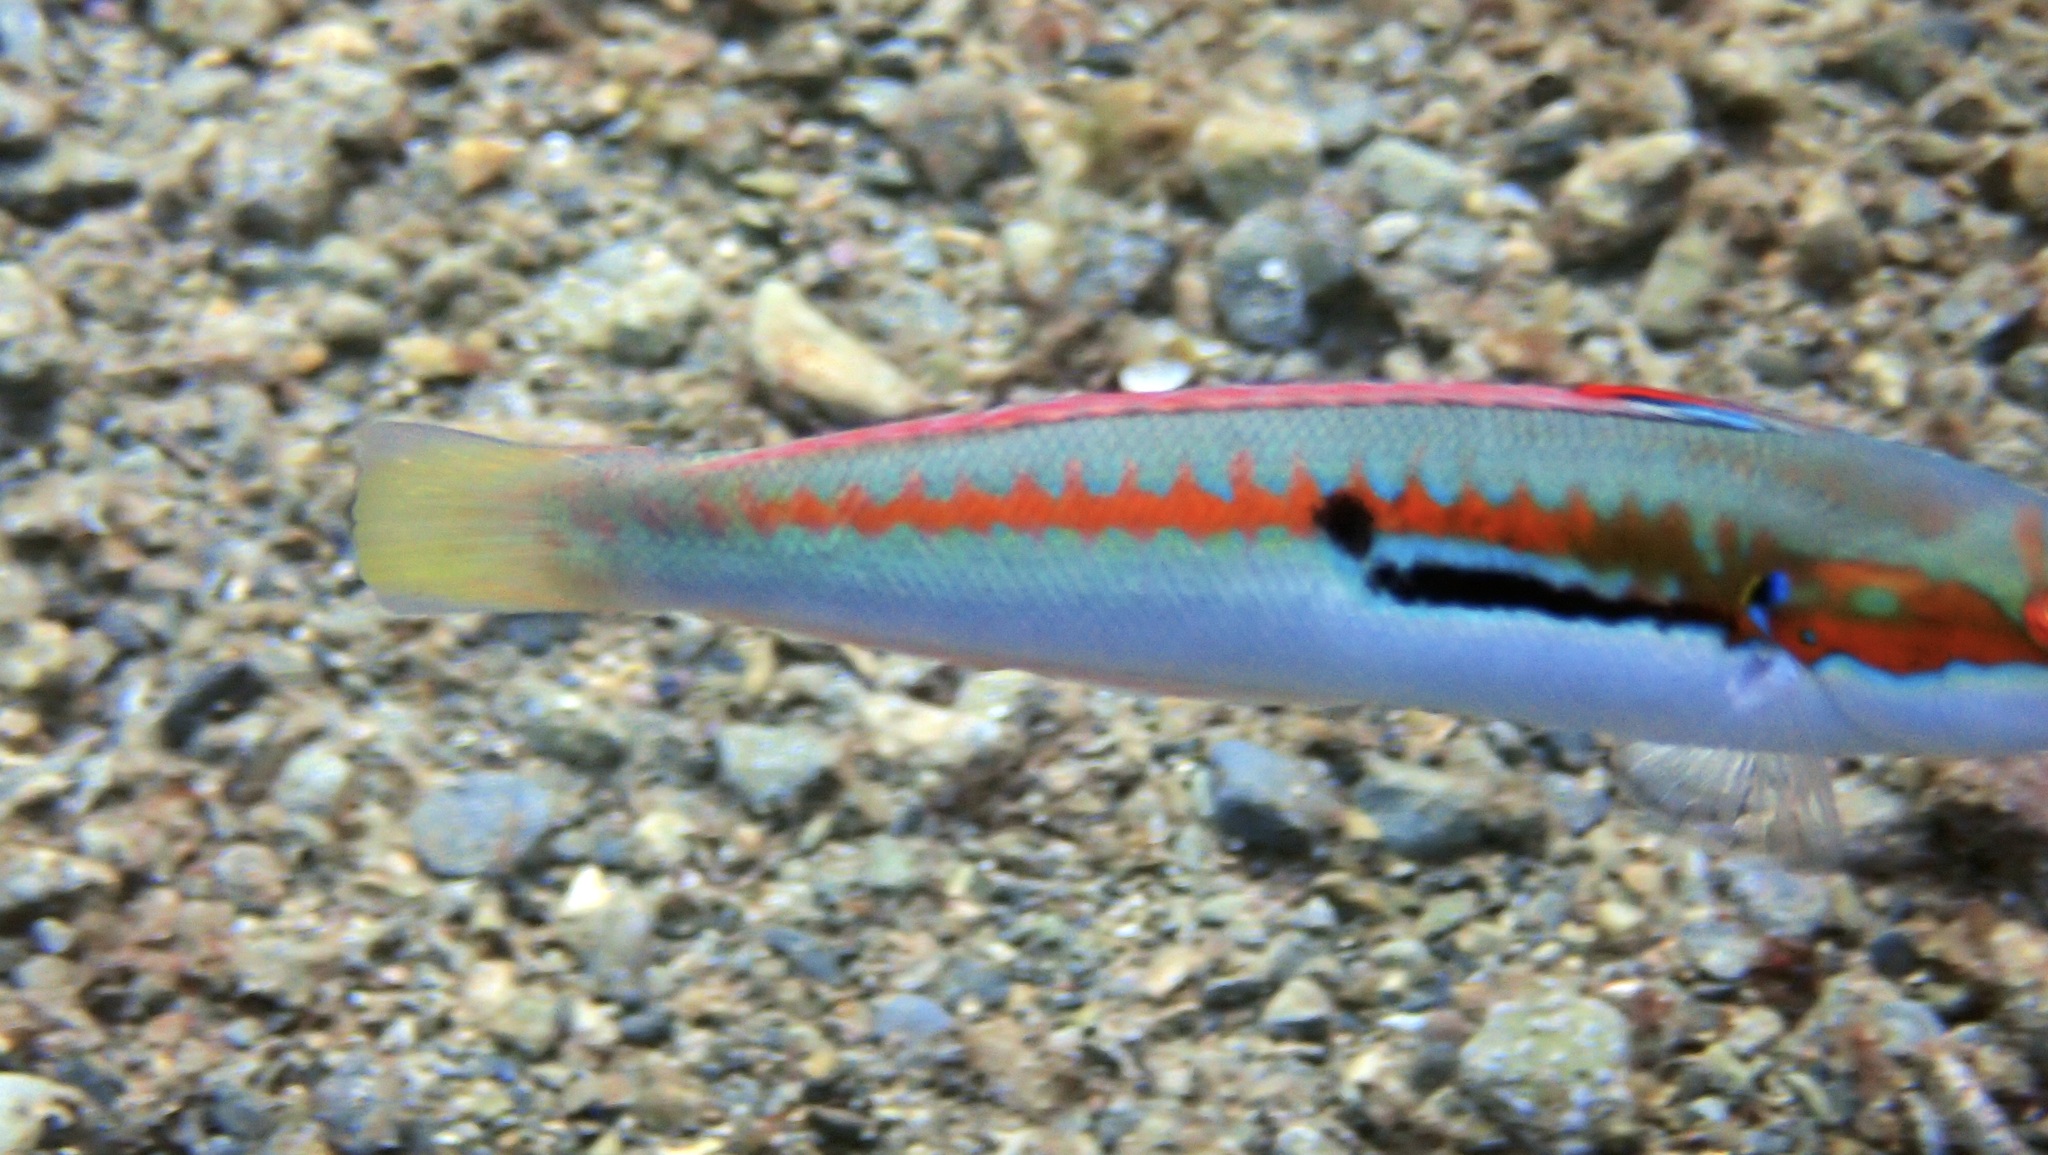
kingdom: Animalia
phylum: Chordata
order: Perciformes
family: Labridae
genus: Coris
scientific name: Coris julis
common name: Rainbow wrasse
